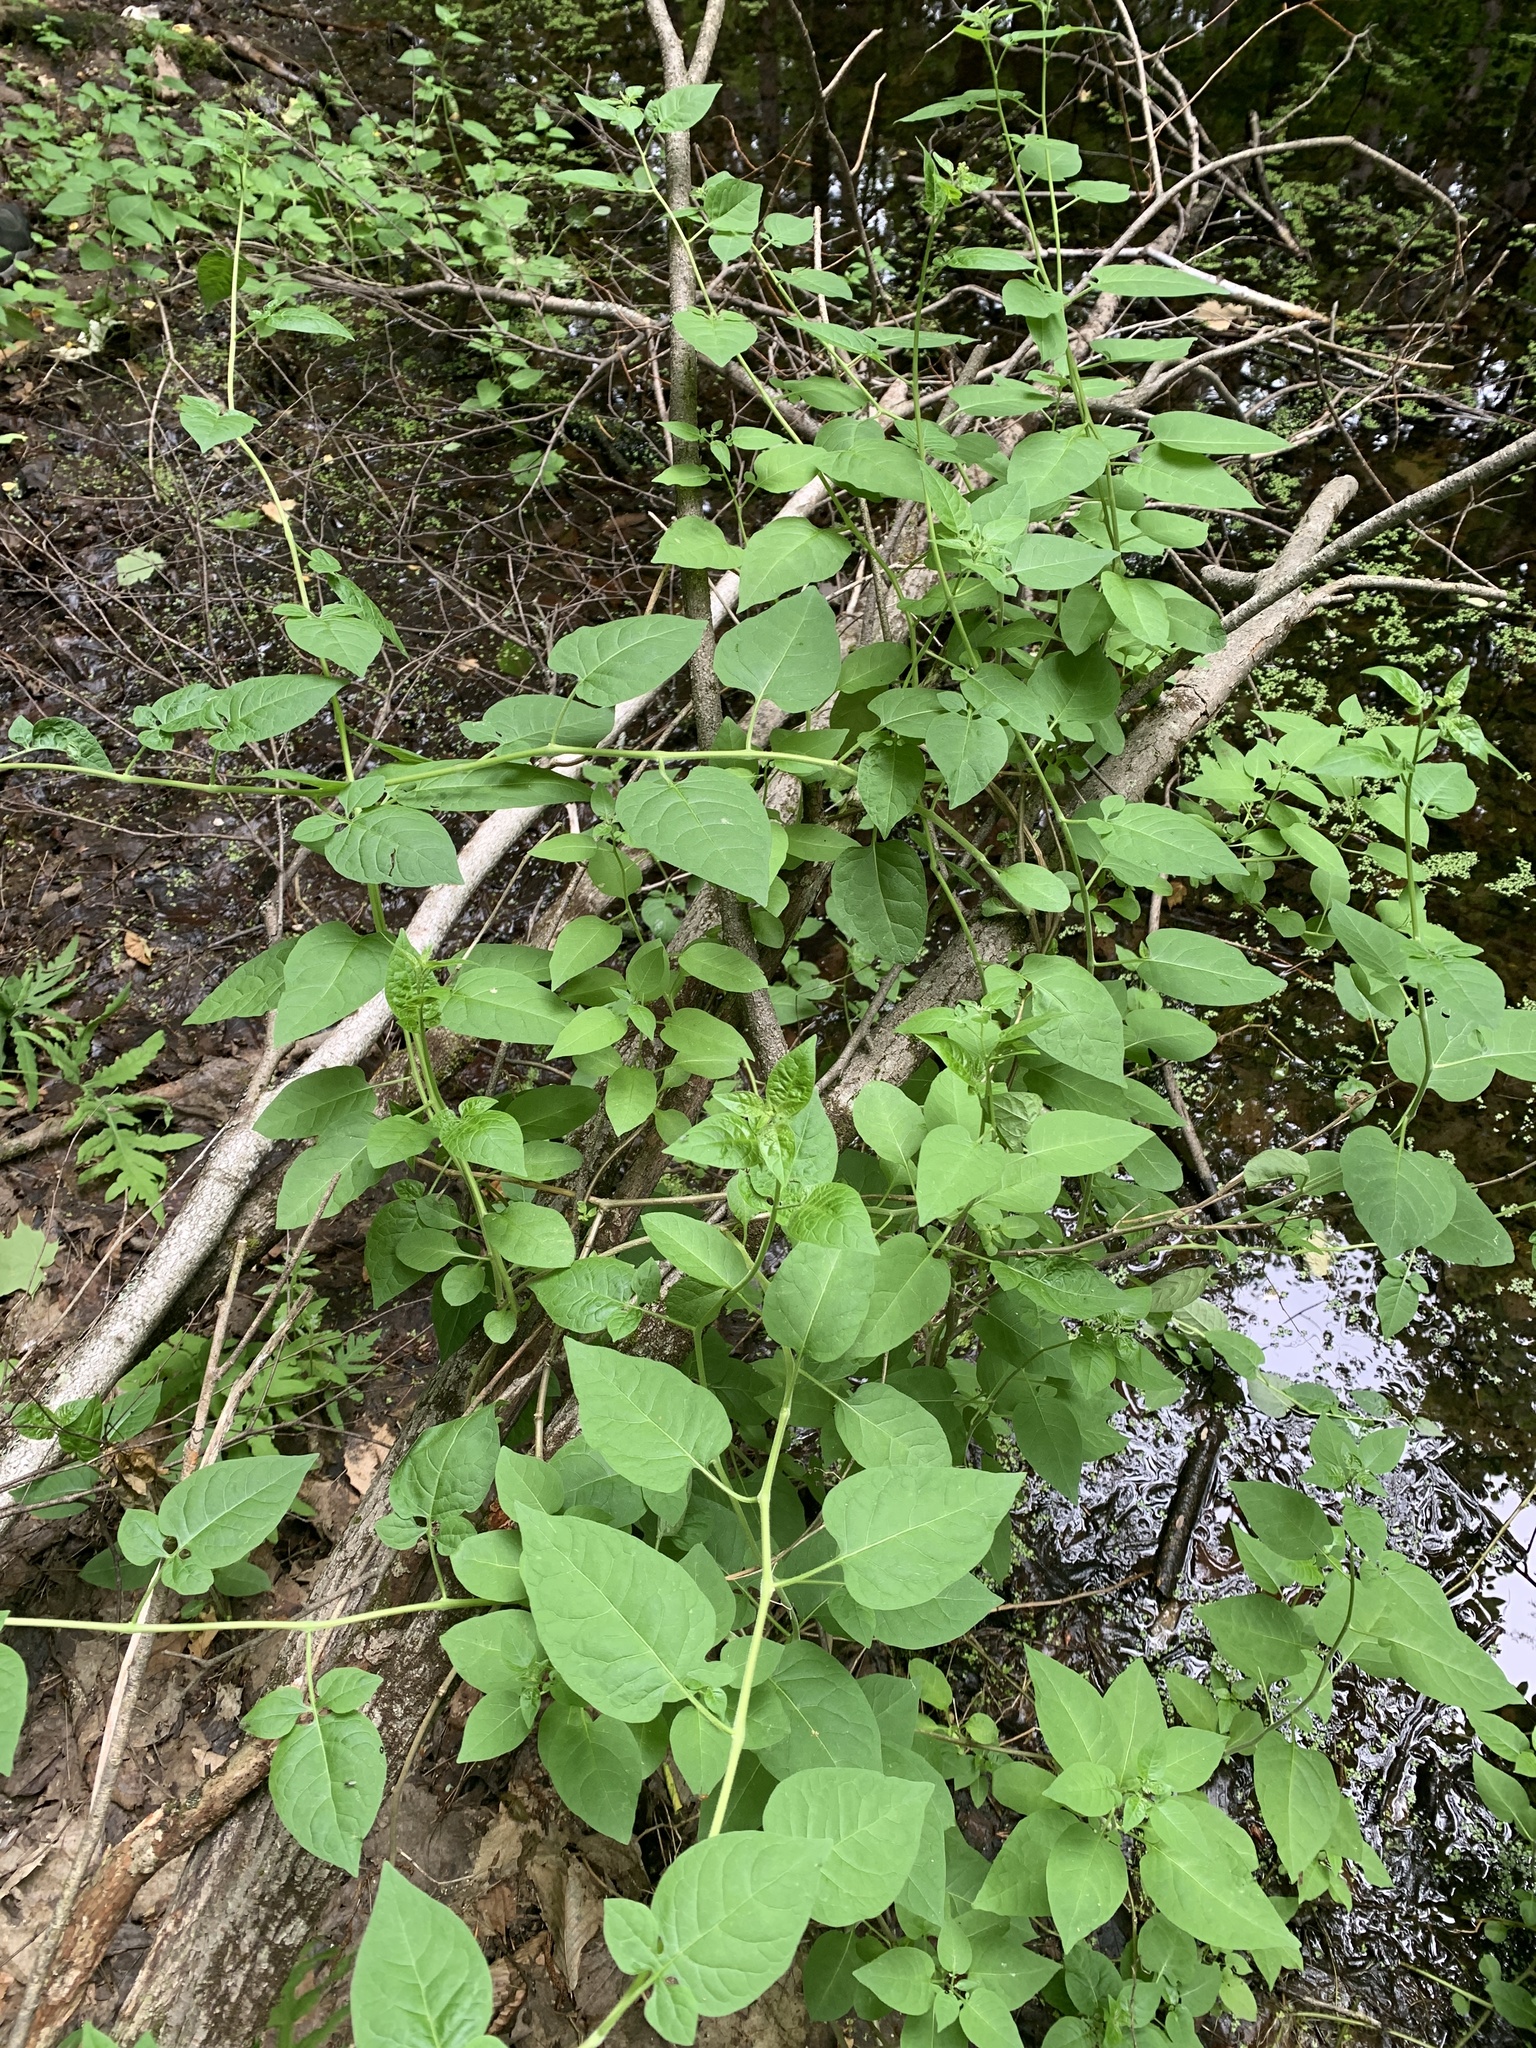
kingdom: Plantae
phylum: Tracheophyta
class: Magnoliopsida
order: Solanales
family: Solanaceae
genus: Solanum
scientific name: Solanum dulcamara
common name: Climbing nightshade
